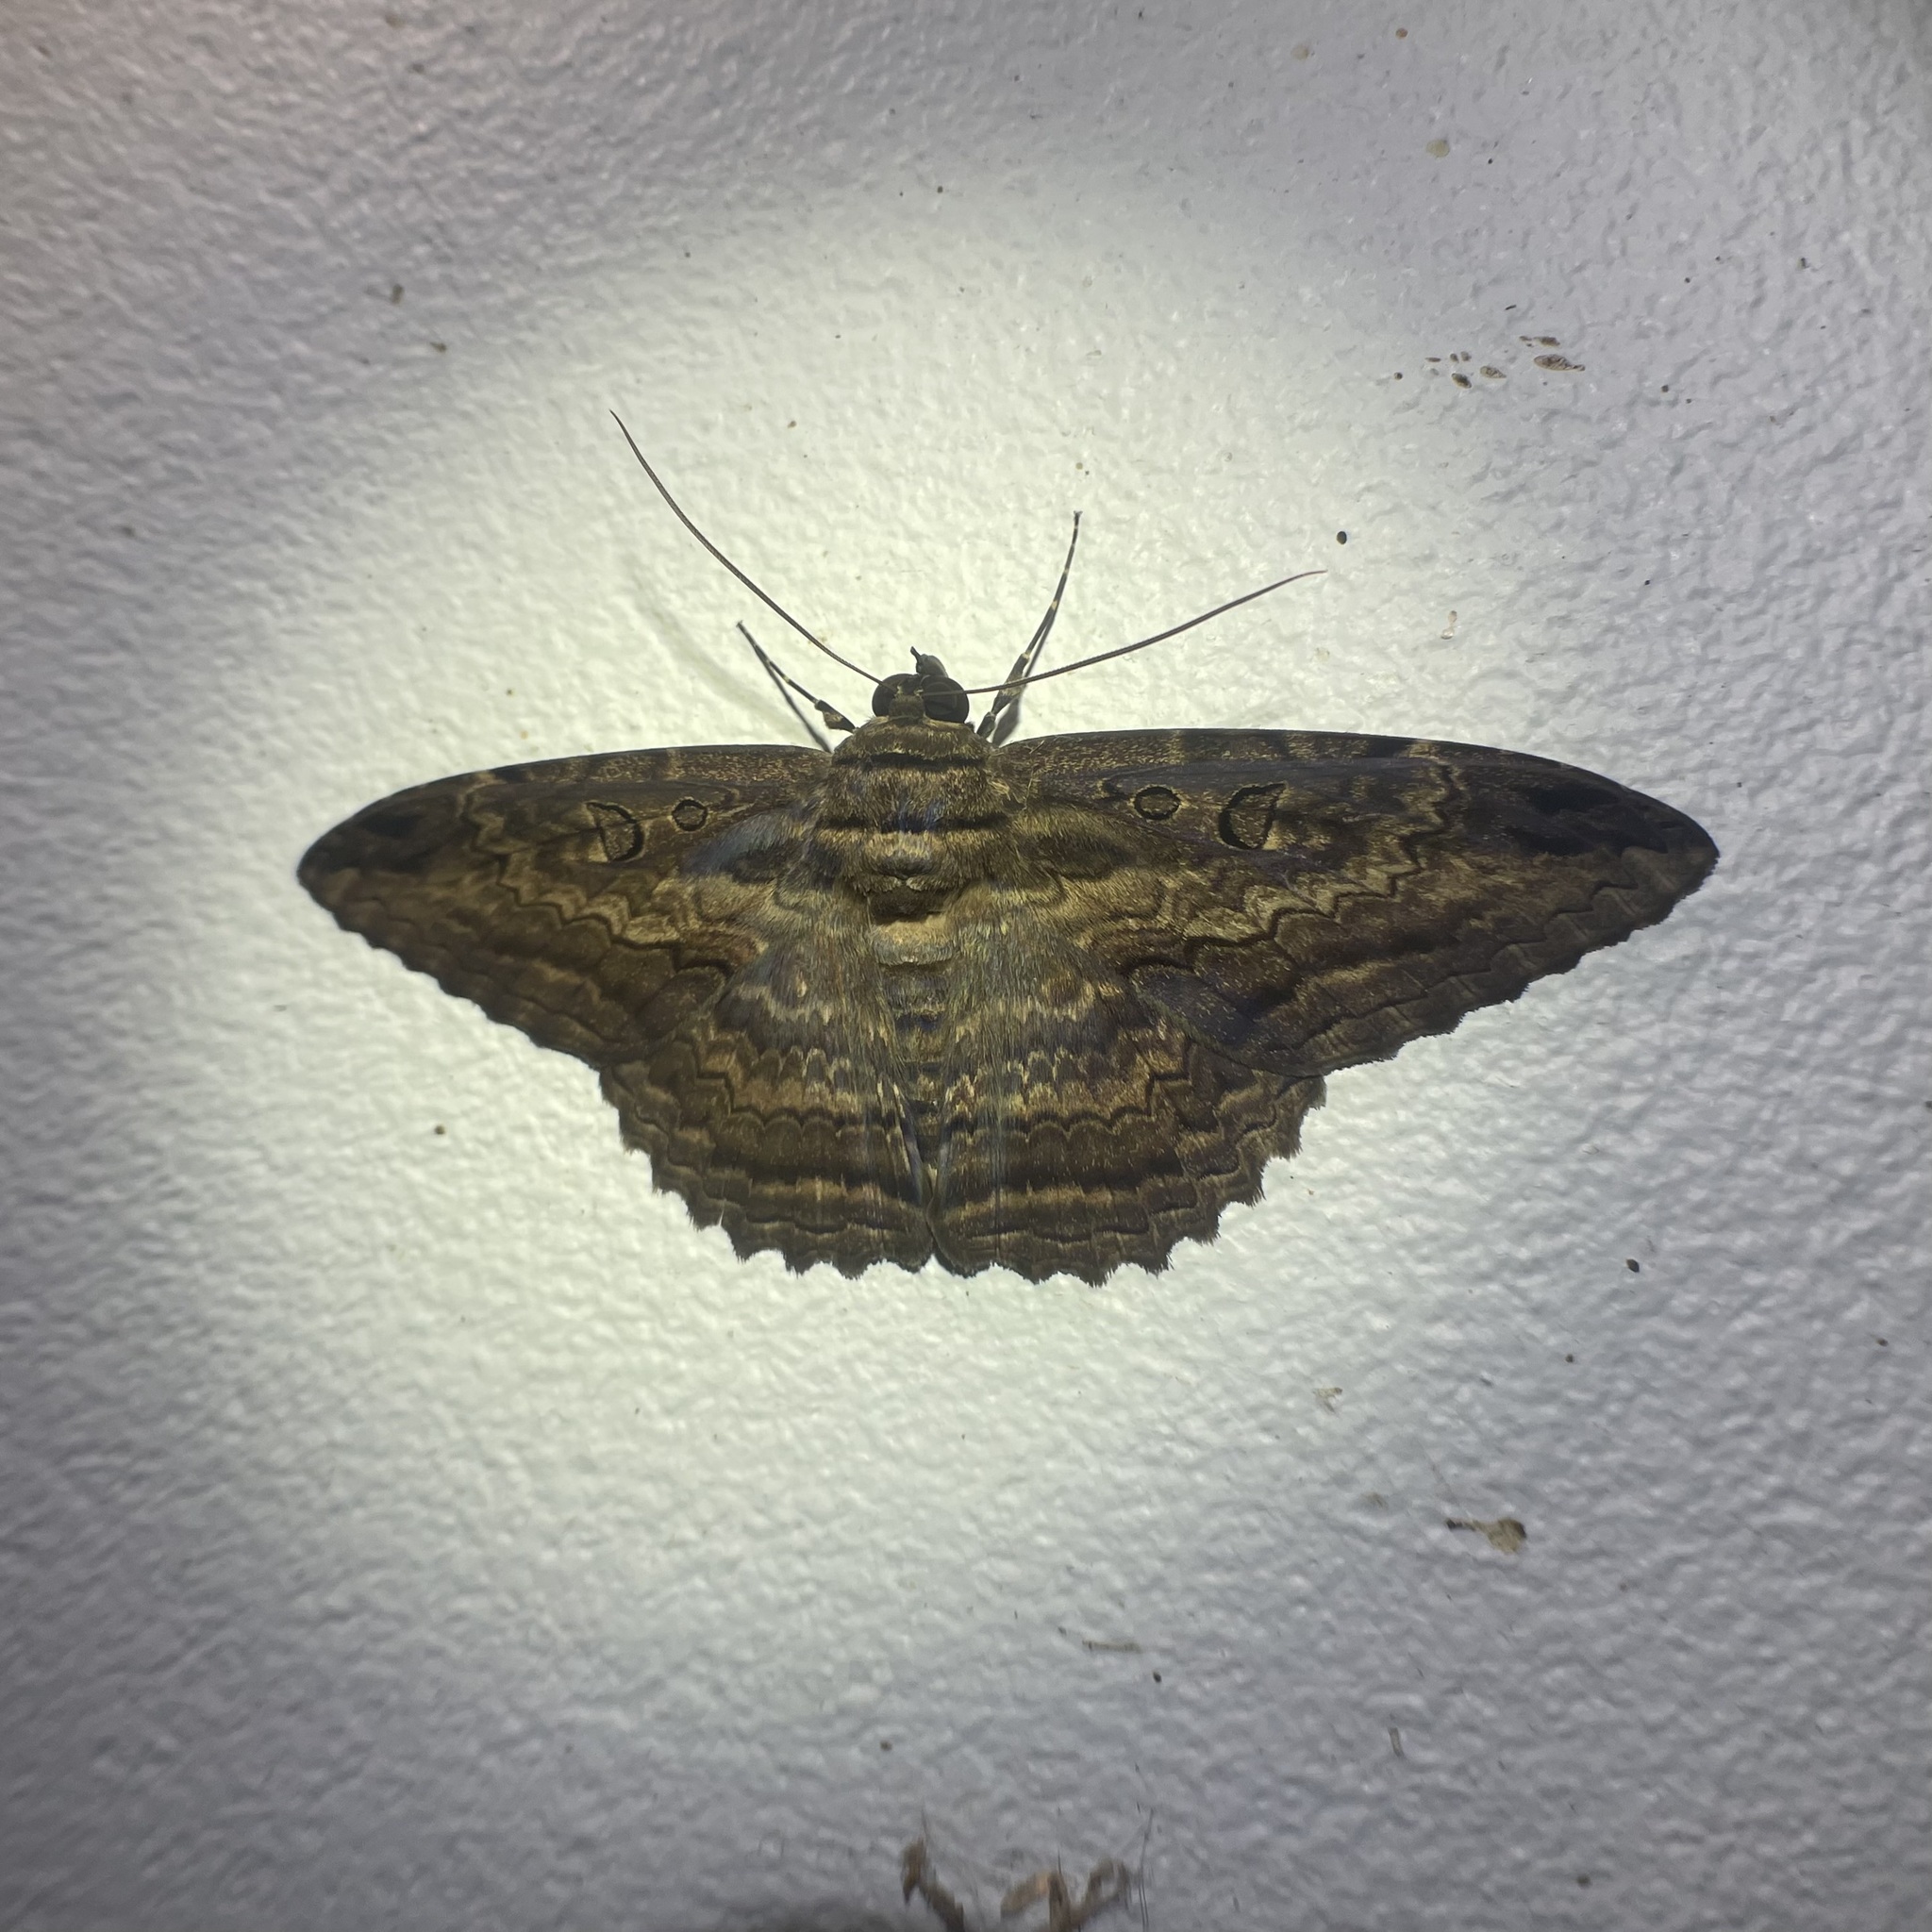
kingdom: Animalia
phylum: Arthropoda
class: Insecta
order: Lepidoptera
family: Erebidae
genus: Feigeria
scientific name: Feigeria buteo
